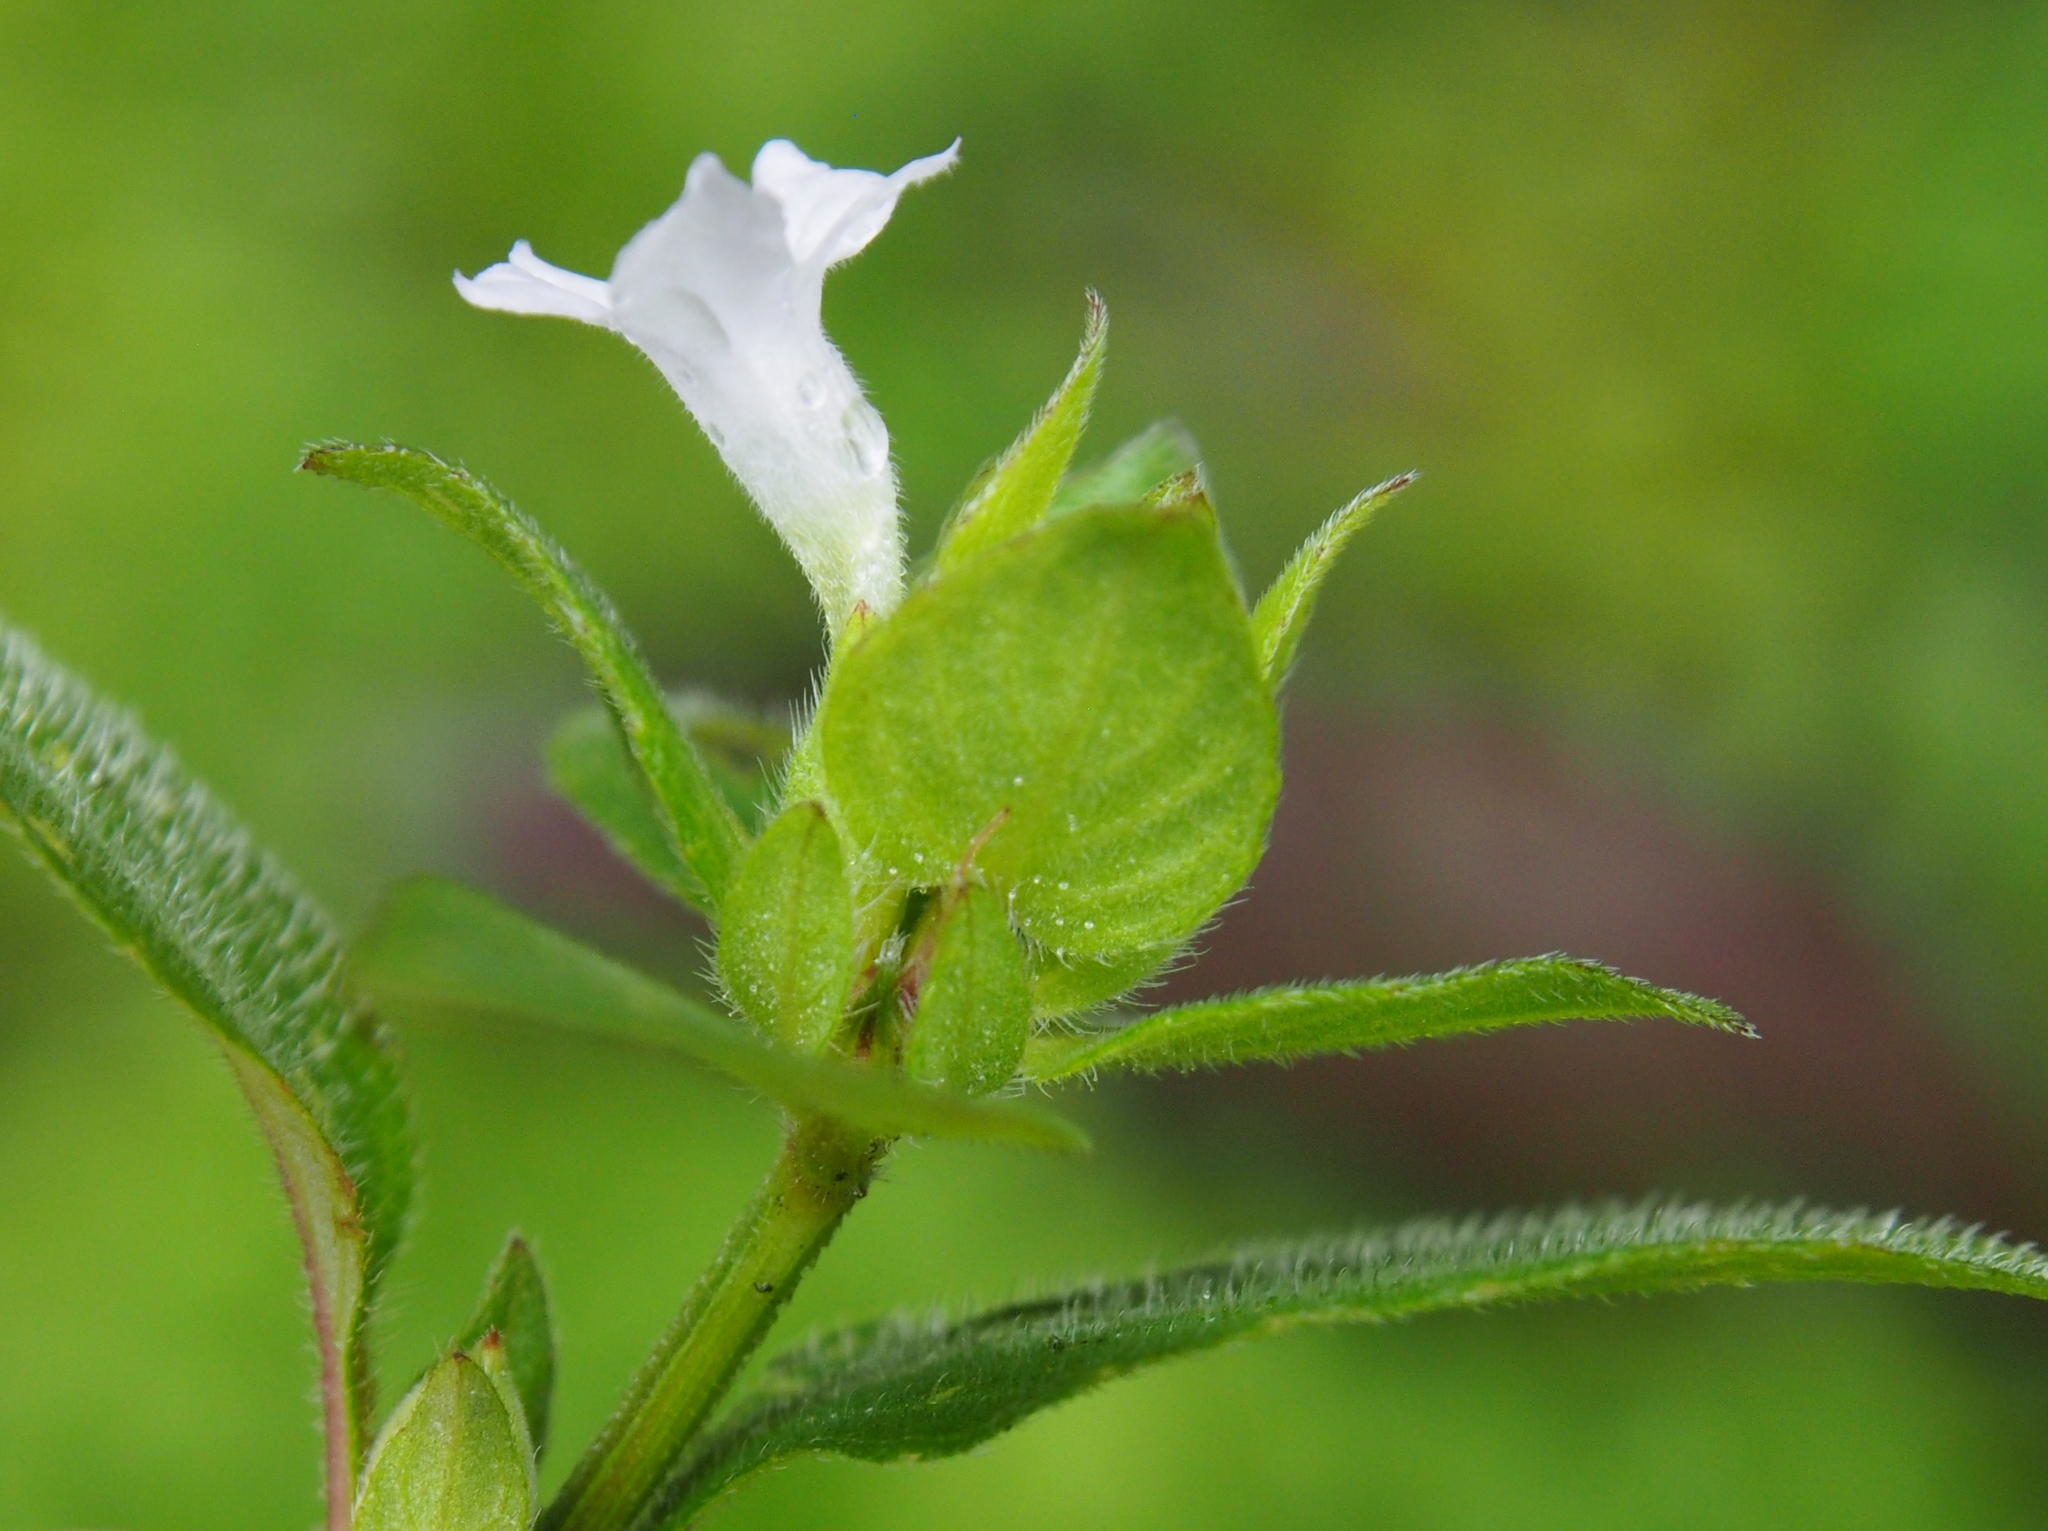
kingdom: Plantae
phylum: Tracheophyta
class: Magnoliopsida
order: Lamiales
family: Acanthaceae
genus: Ruellia
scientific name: Ruellia blechum
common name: Browne's blechum
